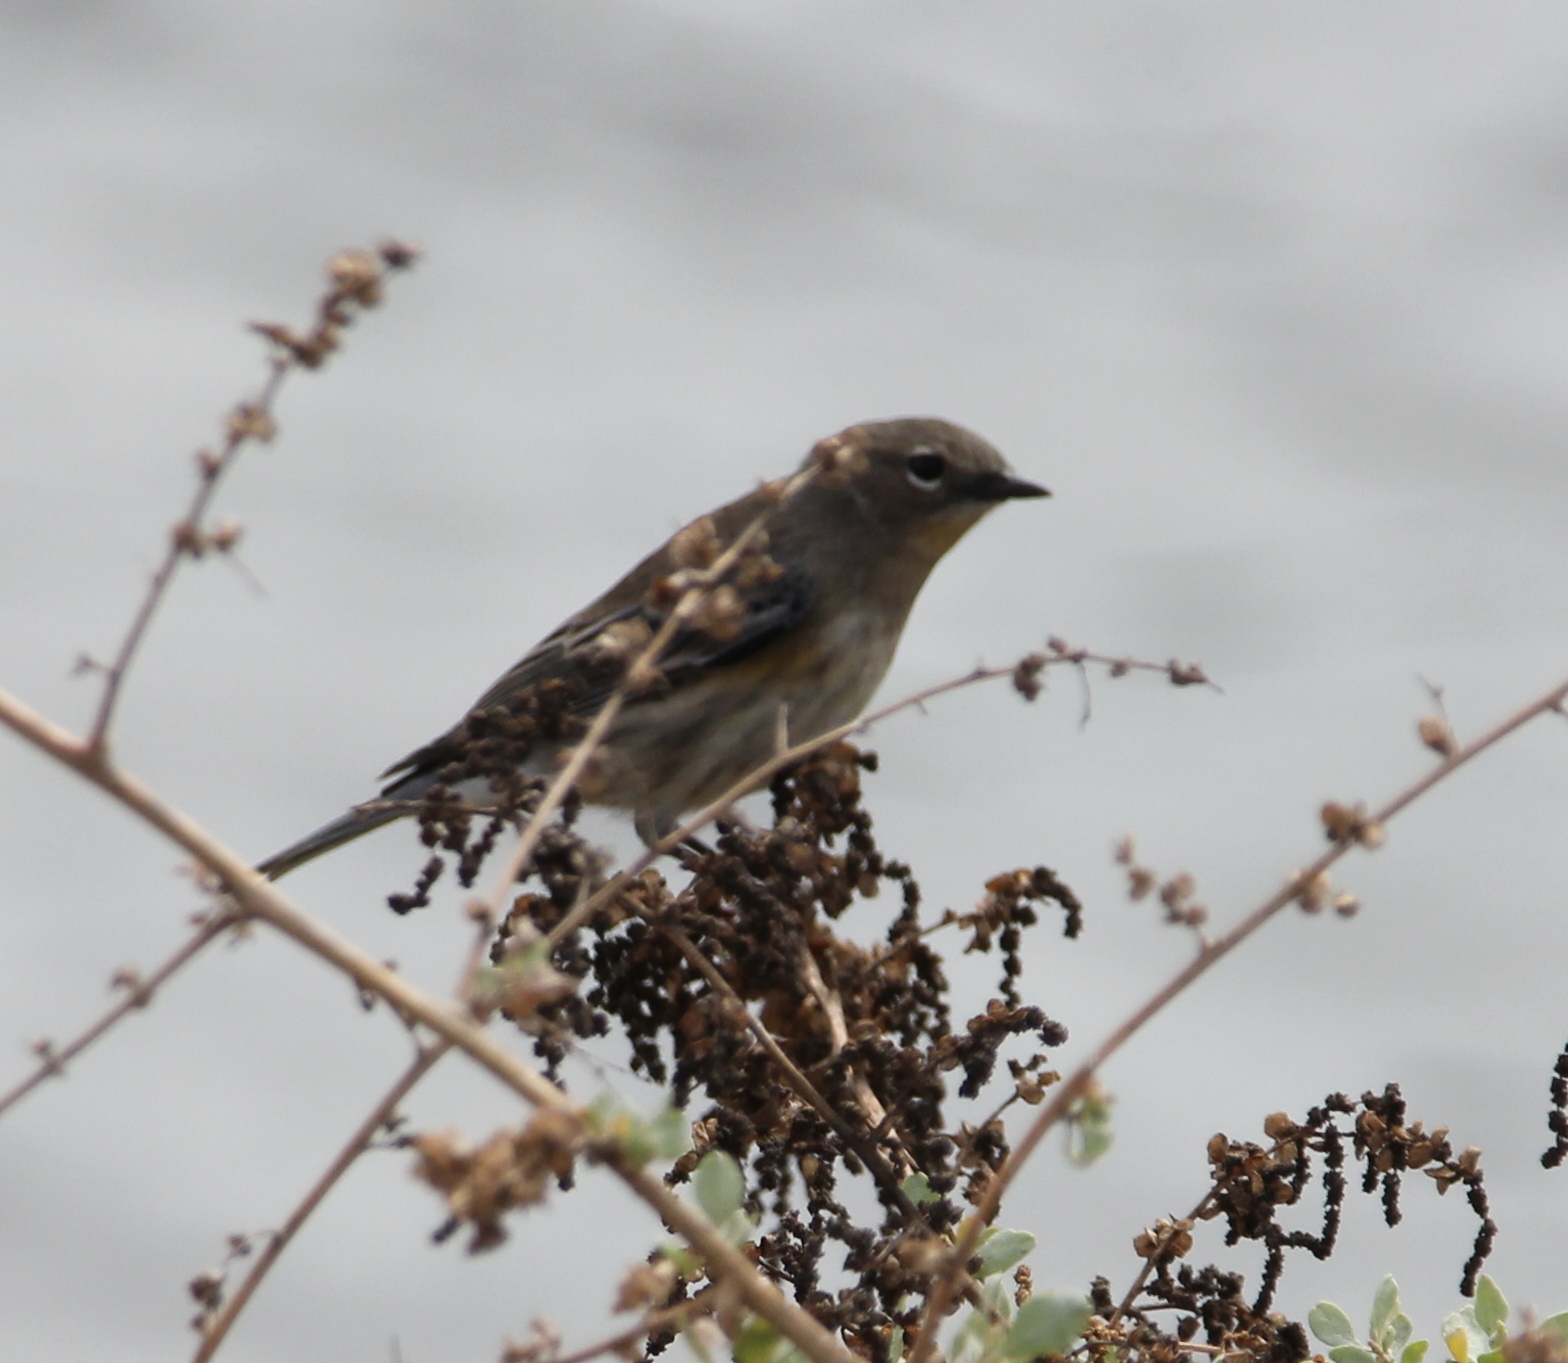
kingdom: Animalia
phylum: Chordata
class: Aves
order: Passeriformes
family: Parulidae
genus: Setophaga
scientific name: Setophaga auduboni
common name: Audubon's warbler
